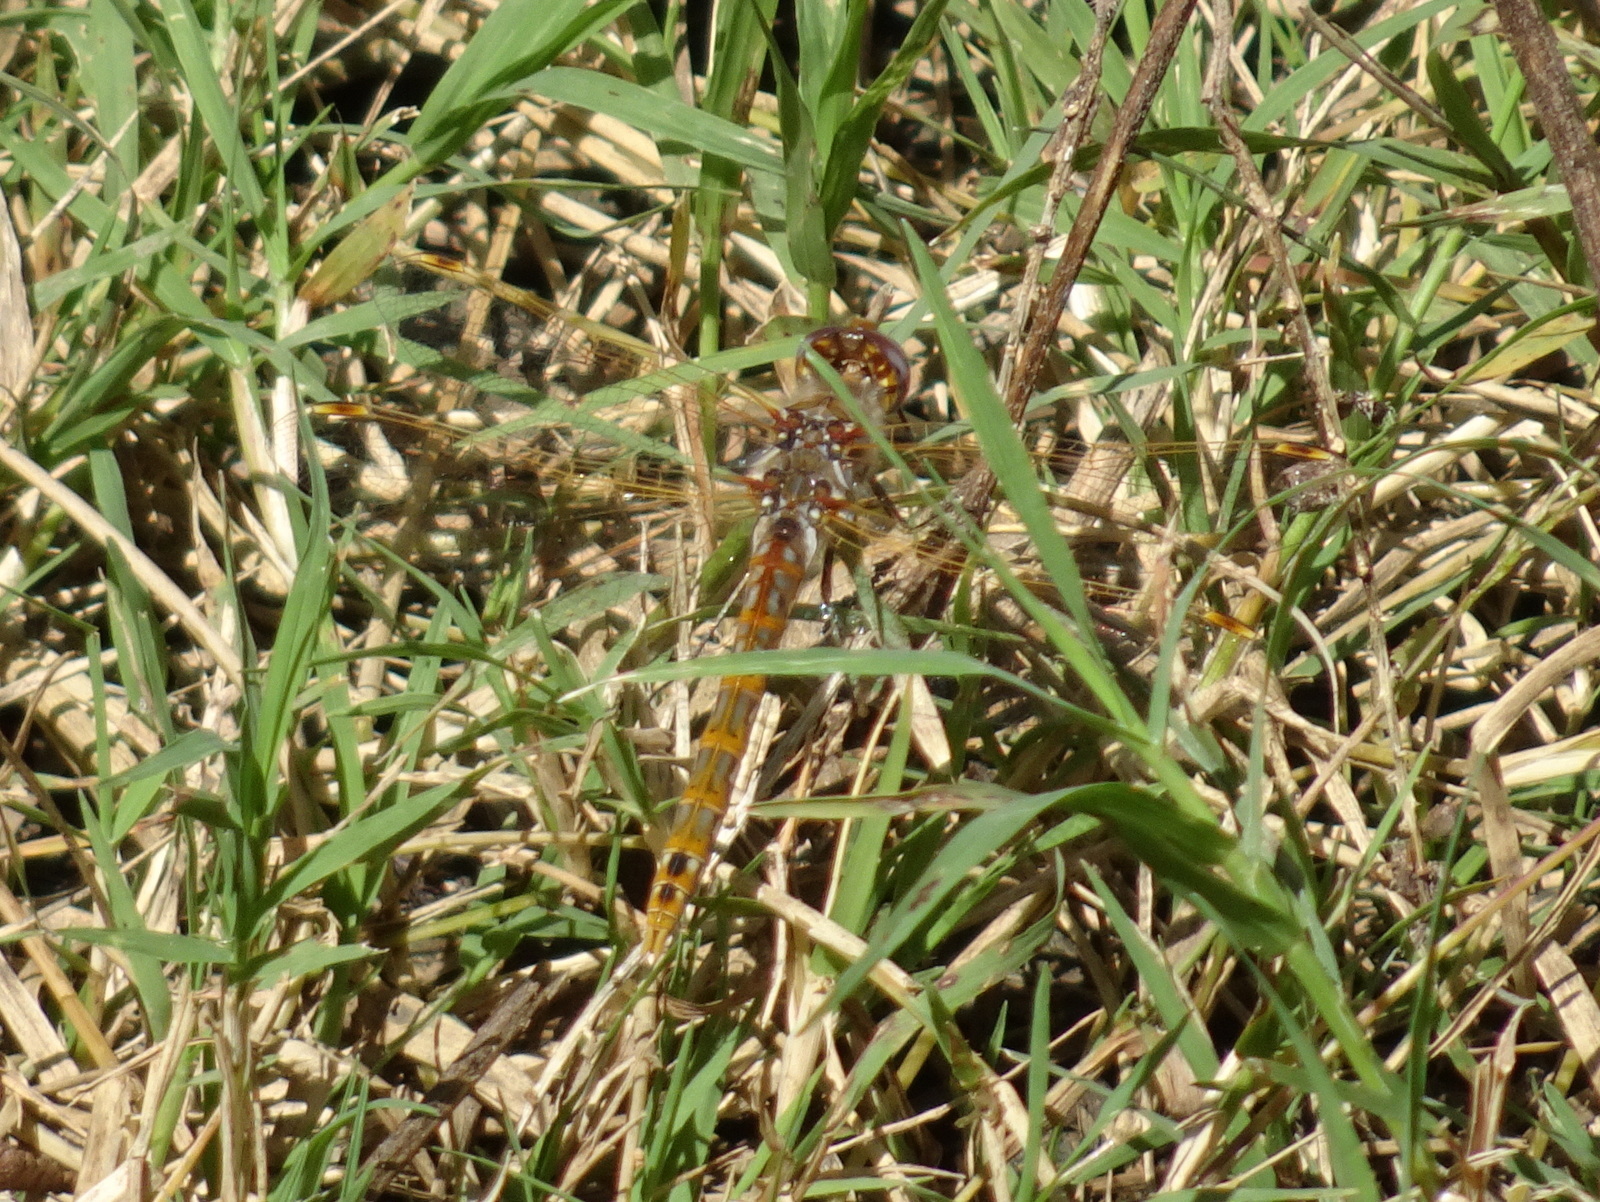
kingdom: Animalia
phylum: Arthropoda
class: Insecta
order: Odonata
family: Libellulidae
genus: Sympetrum
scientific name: Sympetrum corruptum
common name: Variegated meadowhawk
